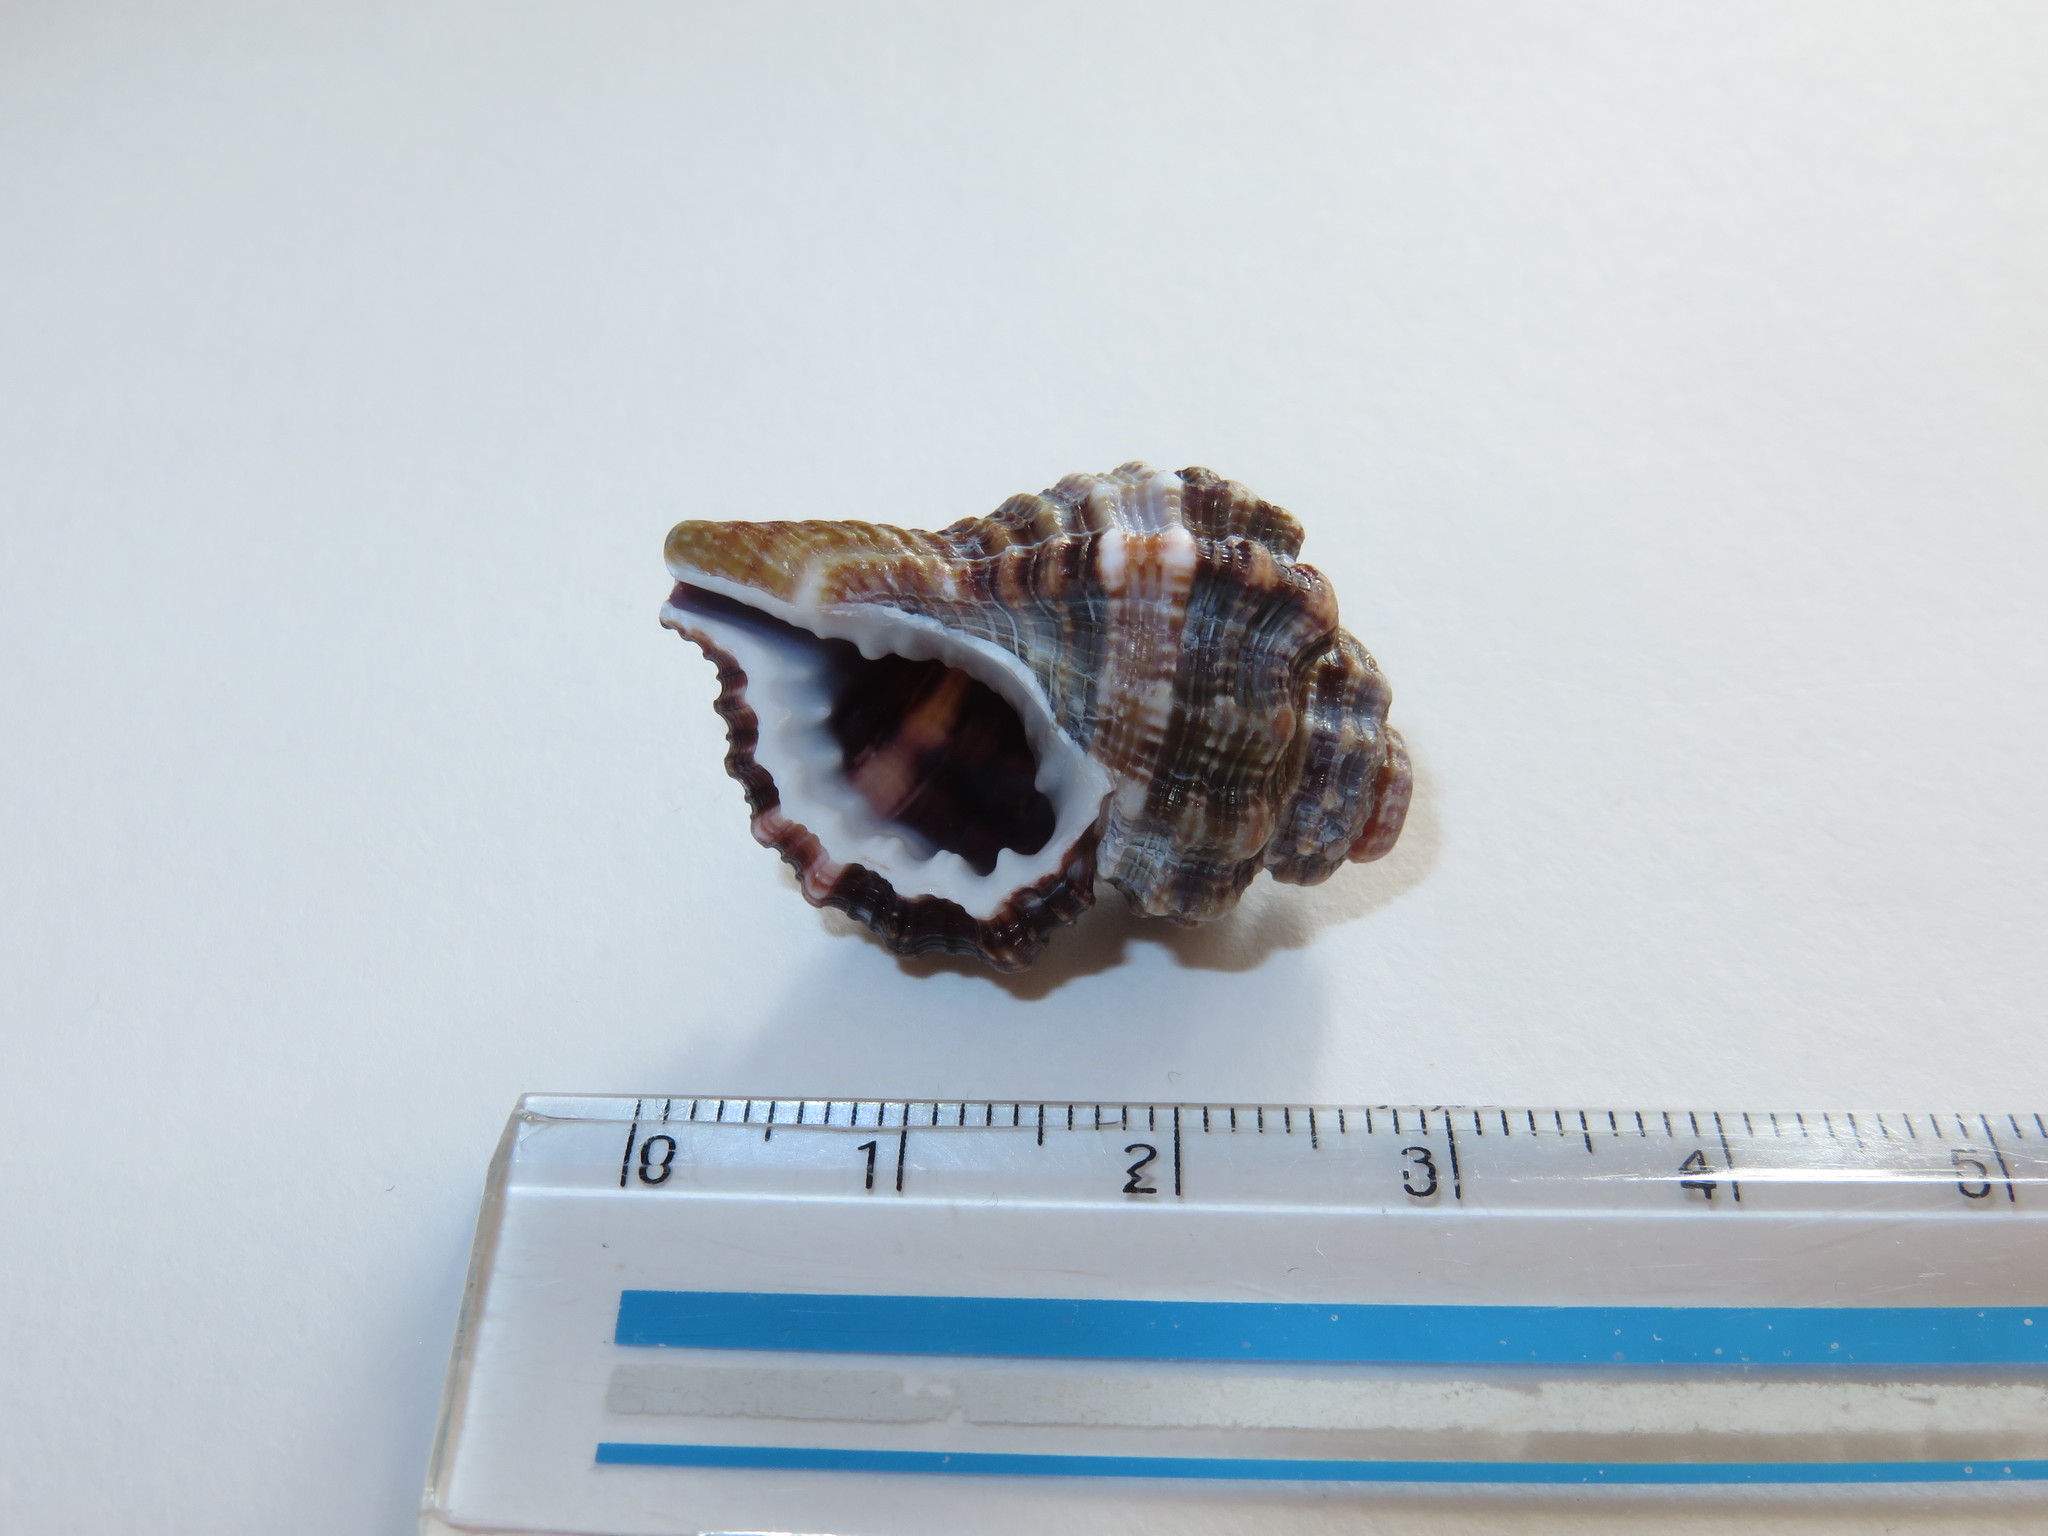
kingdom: Animalia
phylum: Mollusca
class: Gastropoda
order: Littorinimorpha
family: Cymatiidae
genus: Monoplex
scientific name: Monoplex exaratus
